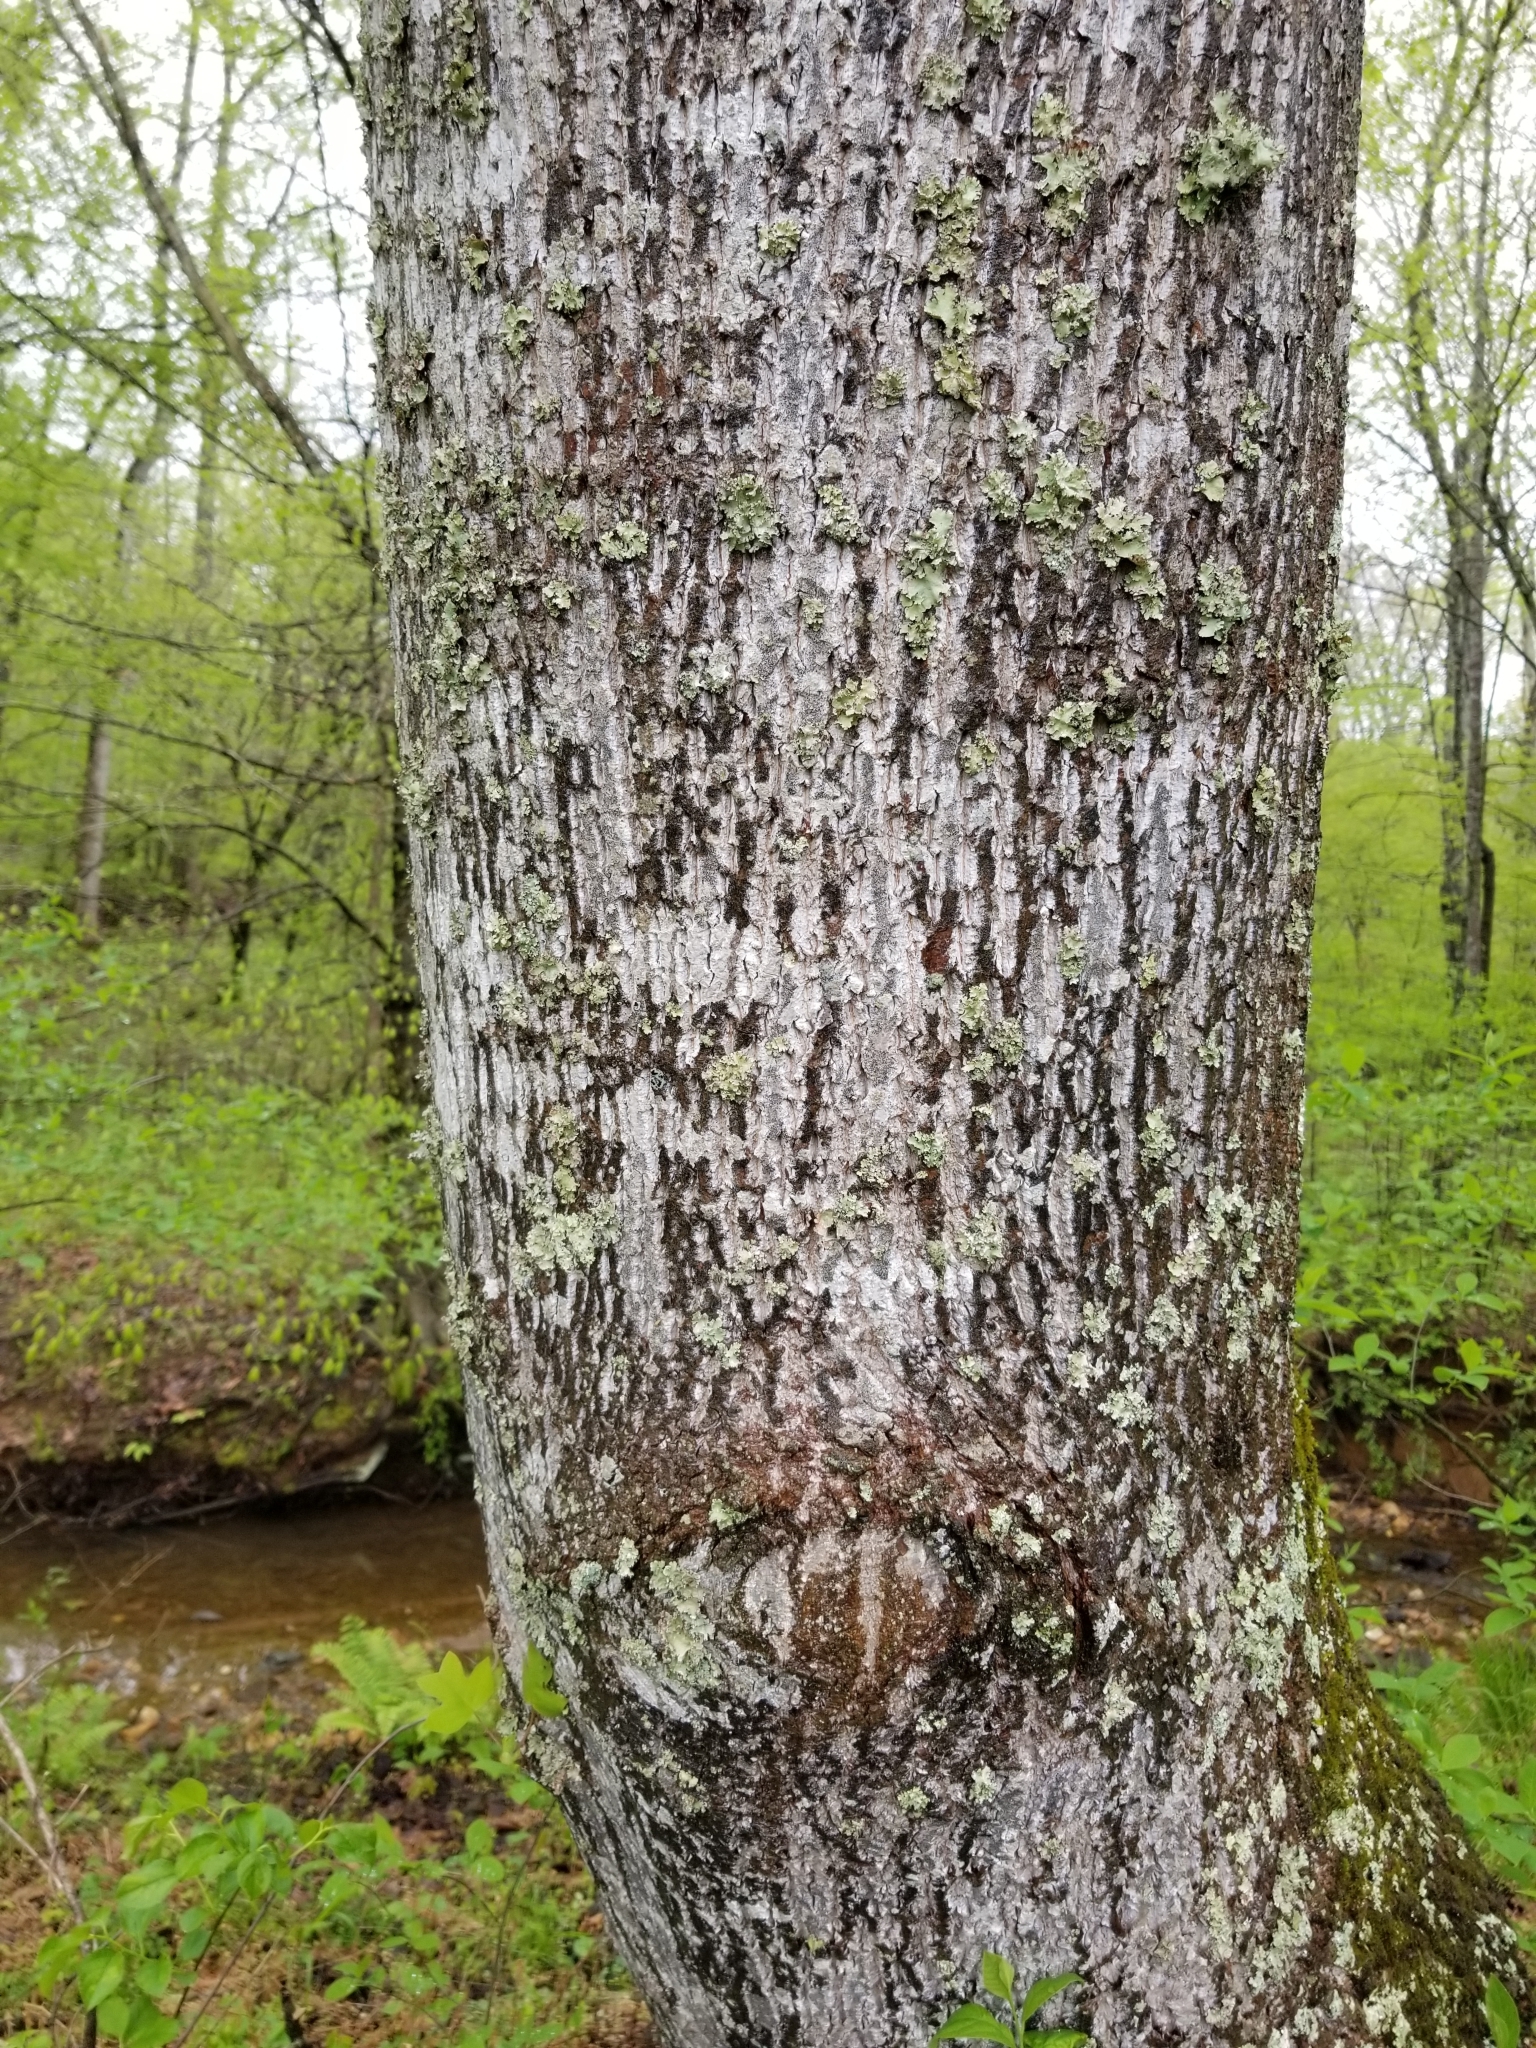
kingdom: Plantae
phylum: Tracheophyta
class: Magnoliopsida
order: Magnoliales
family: Magnoliaceae
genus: Liriodendron
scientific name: Liriodendron tulipifera
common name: Tulip tree
